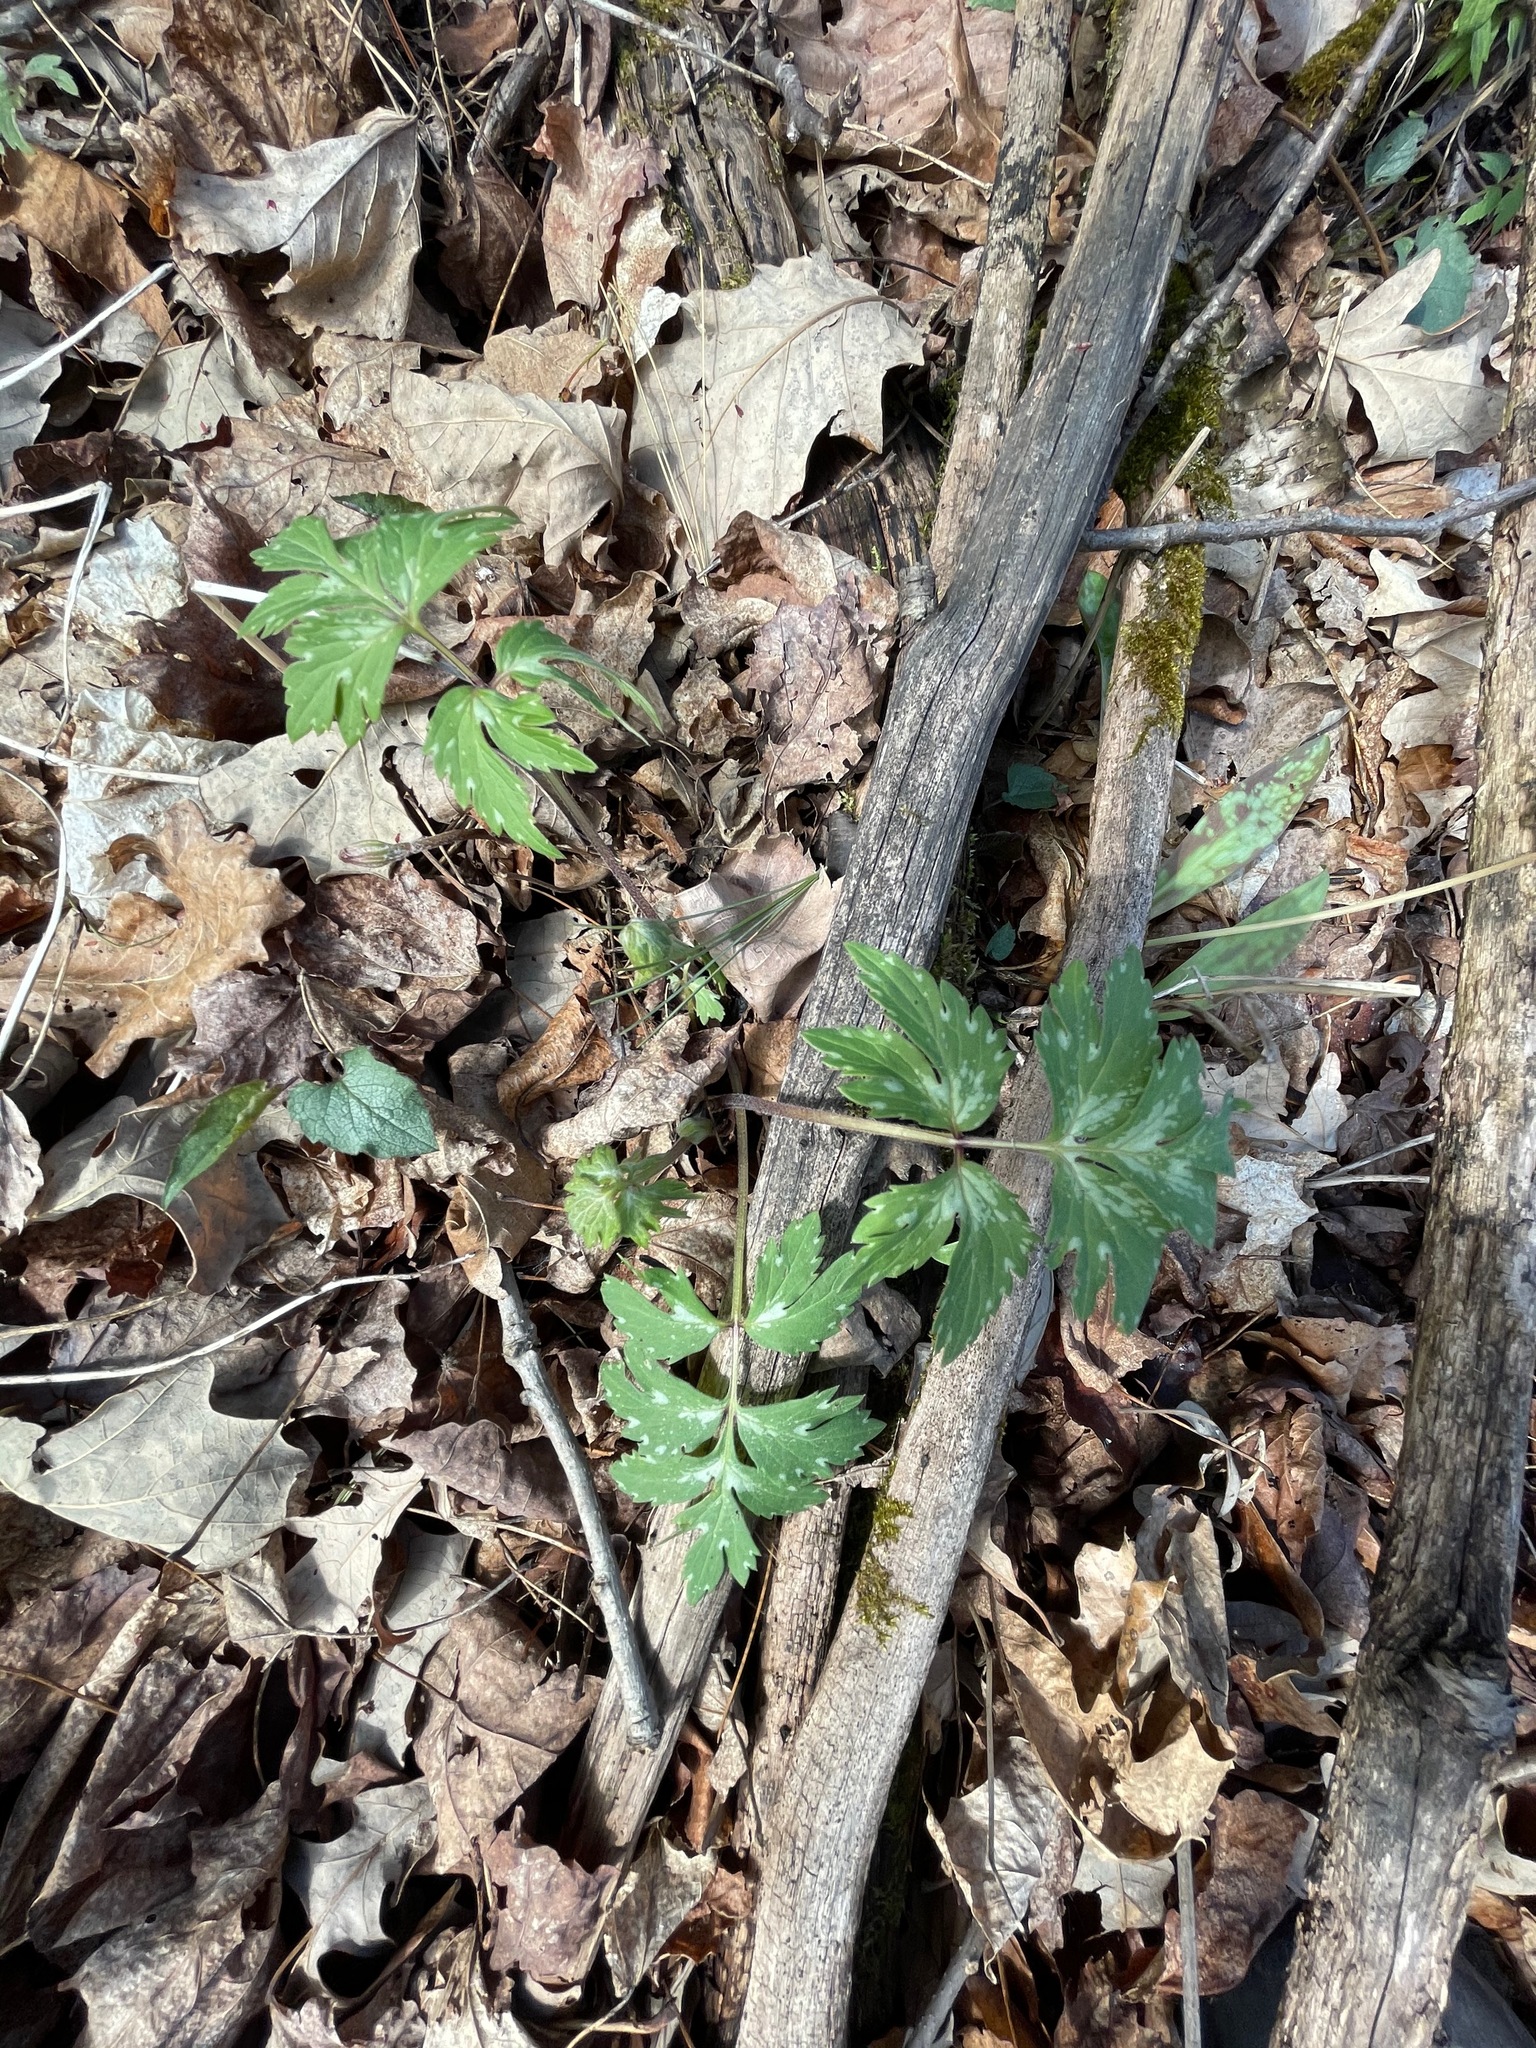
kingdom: Plantae
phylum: Tracheophyta
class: Magnoliopsida
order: Boraginales
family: Hydrophyllaceae
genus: Hydrophyllum
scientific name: Hydrophyllum virginianum
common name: Virginia waterleaf
